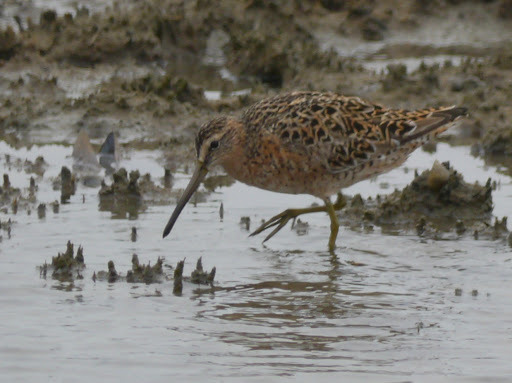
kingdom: Animalia
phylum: Chordata
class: Aves
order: Charadriiformes
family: Scolopacidae
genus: Limnodromus
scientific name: Limnodromus griseus
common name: Short-billed dowitcher
